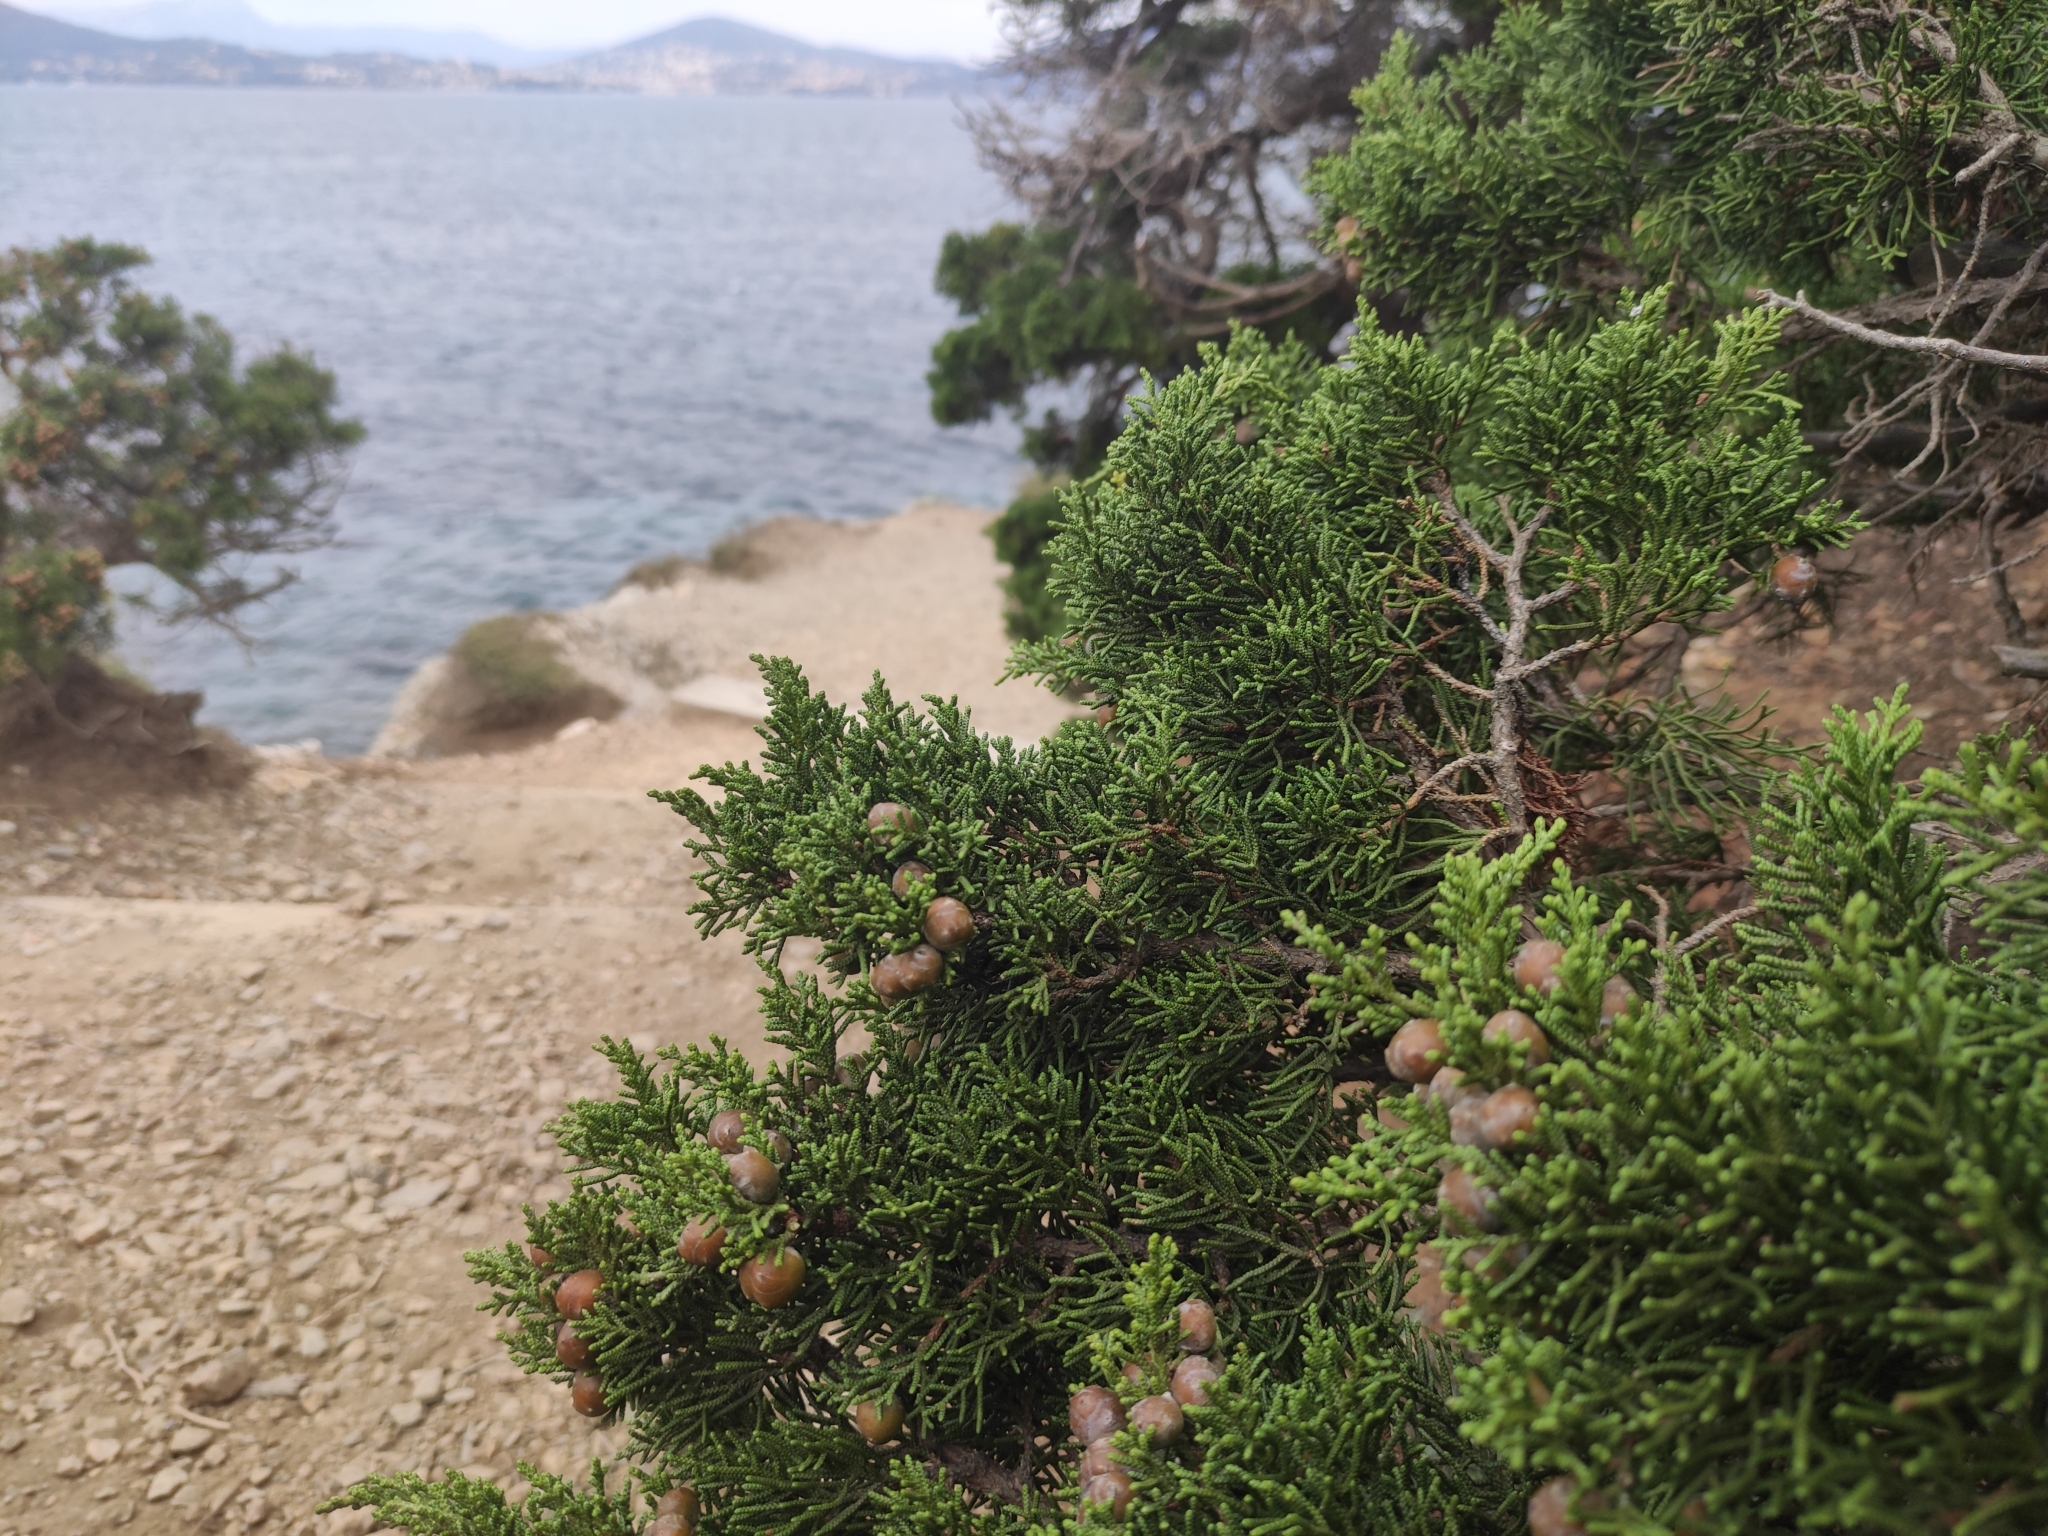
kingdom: Plantae
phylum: Tracheophyta
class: Pinopsida
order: Pinales
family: Cupressaceae
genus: Juniperus
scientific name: Juniperus phoenicea
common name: Phoenician juniper
